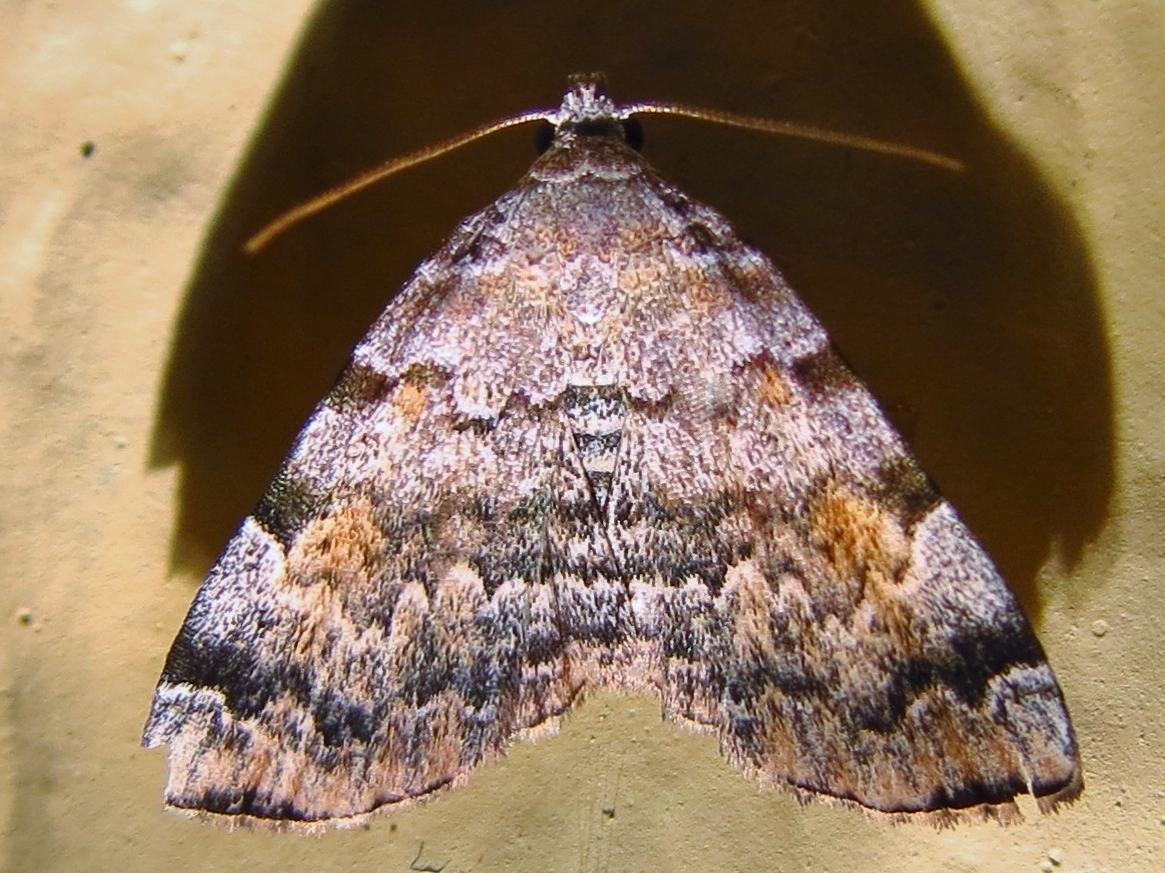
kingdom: Animalia
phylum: Arthropoda
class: Insecta
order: Lepidoptera
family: Erebidae
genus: Idia
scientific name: Idia americalis
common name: American idia moth
